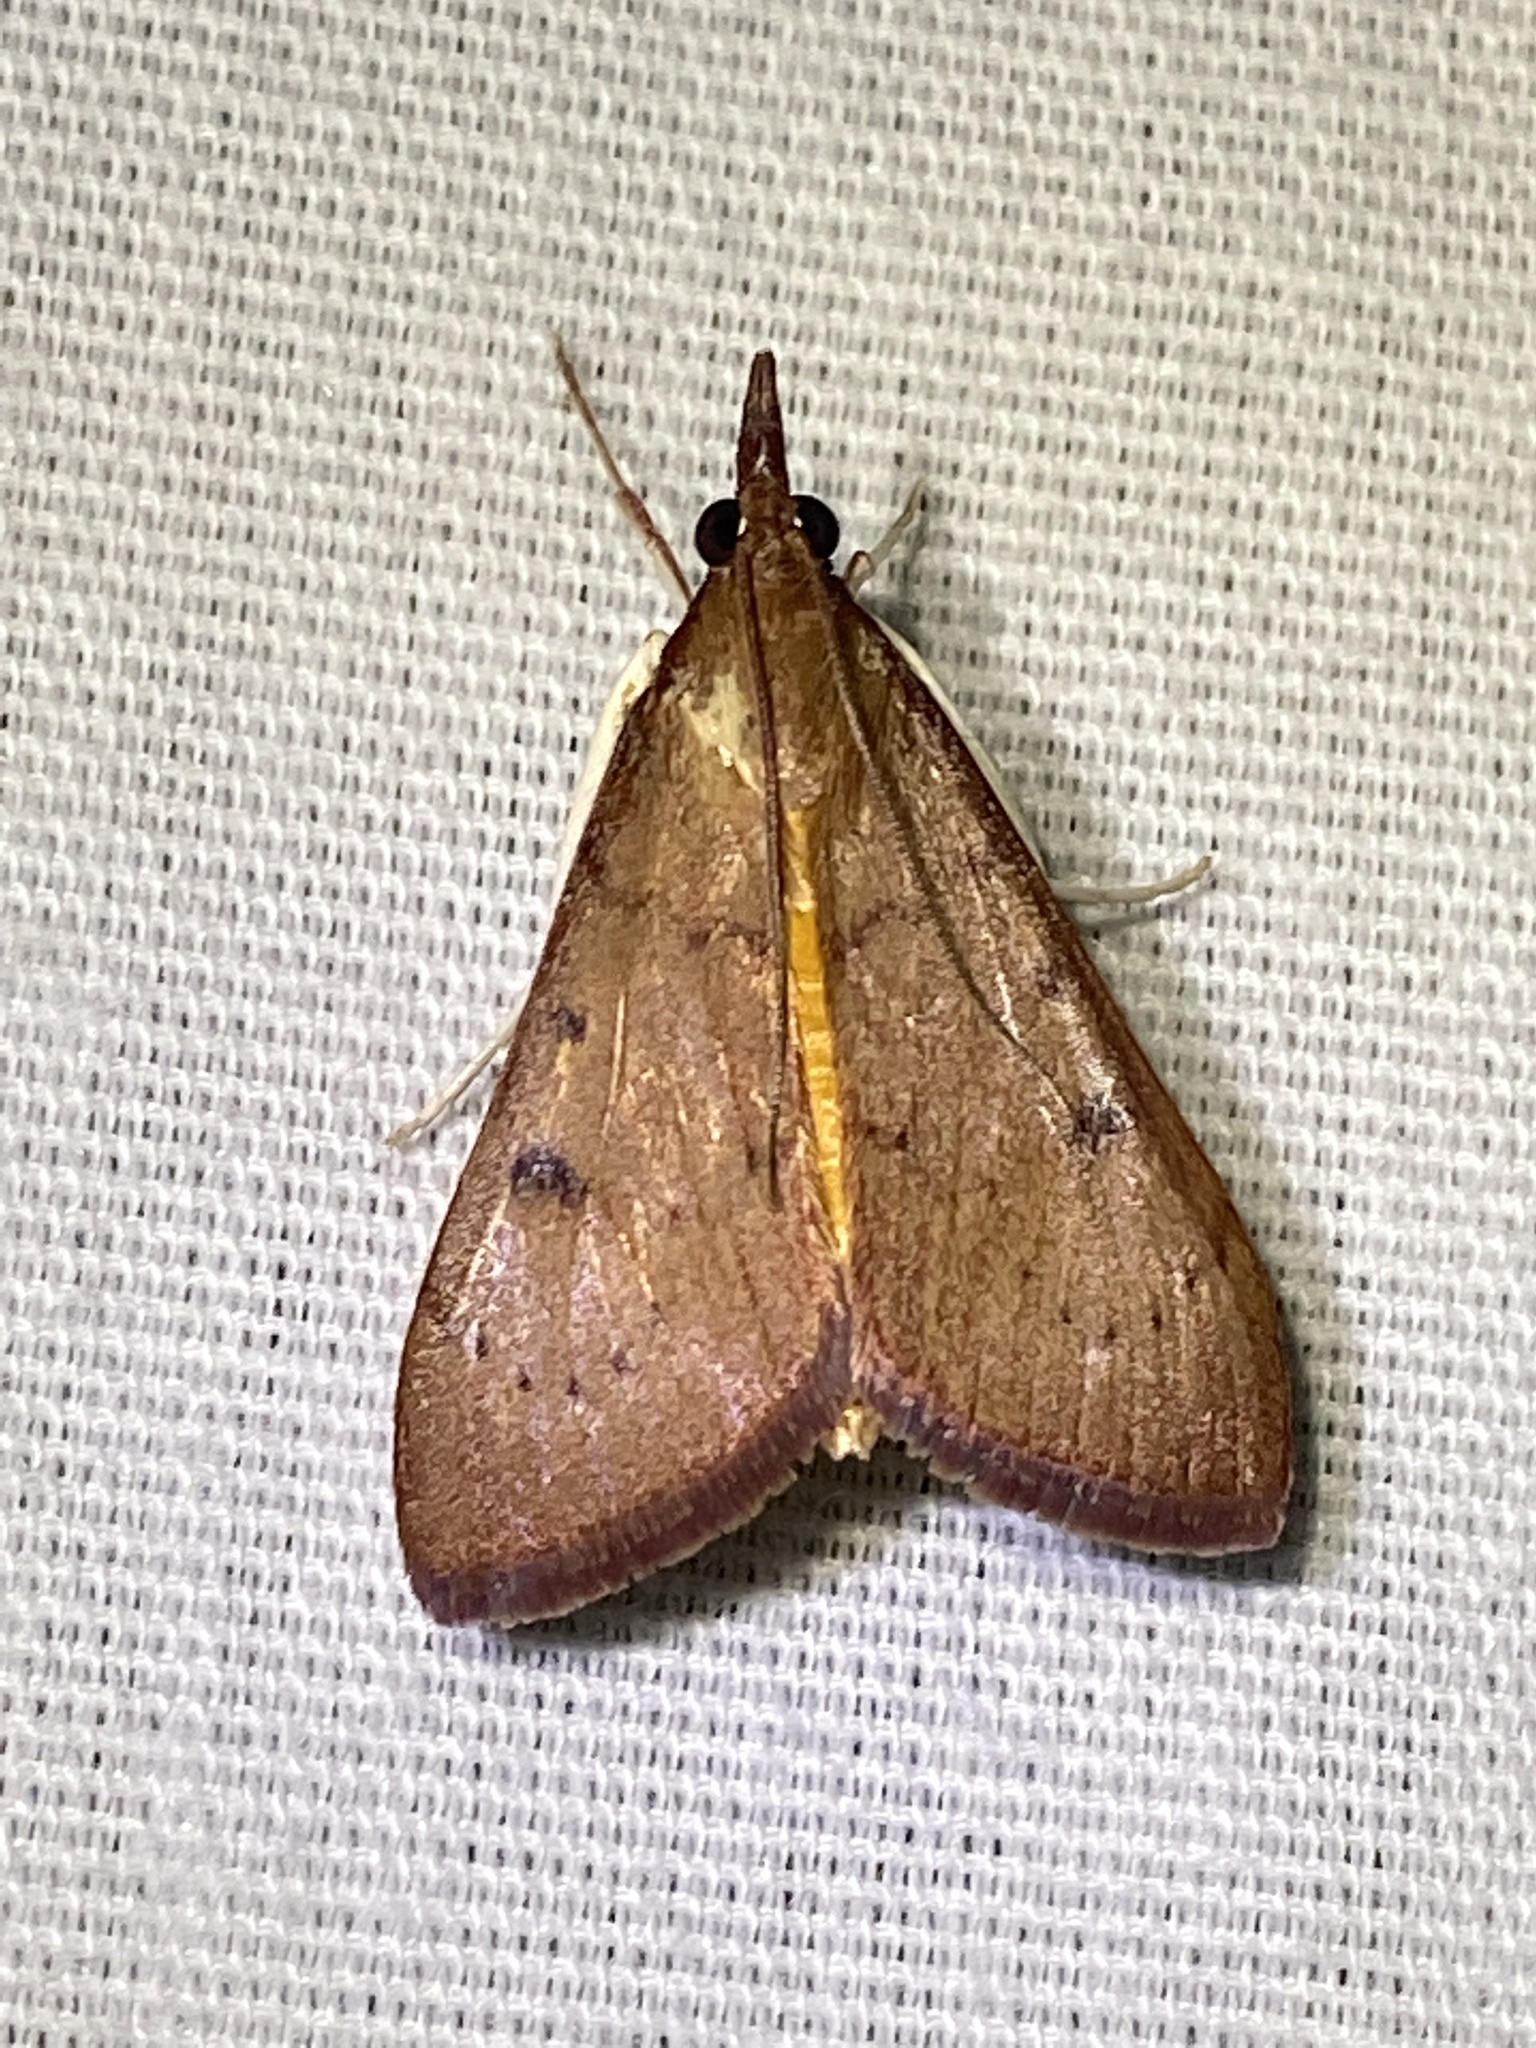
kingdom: Animalia
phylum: Arthropoda
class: Insecta
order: Lepidoptera
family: Crambidae
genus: Uresiphita
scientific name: Uresiphita reversalis
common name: Genista broom moth
